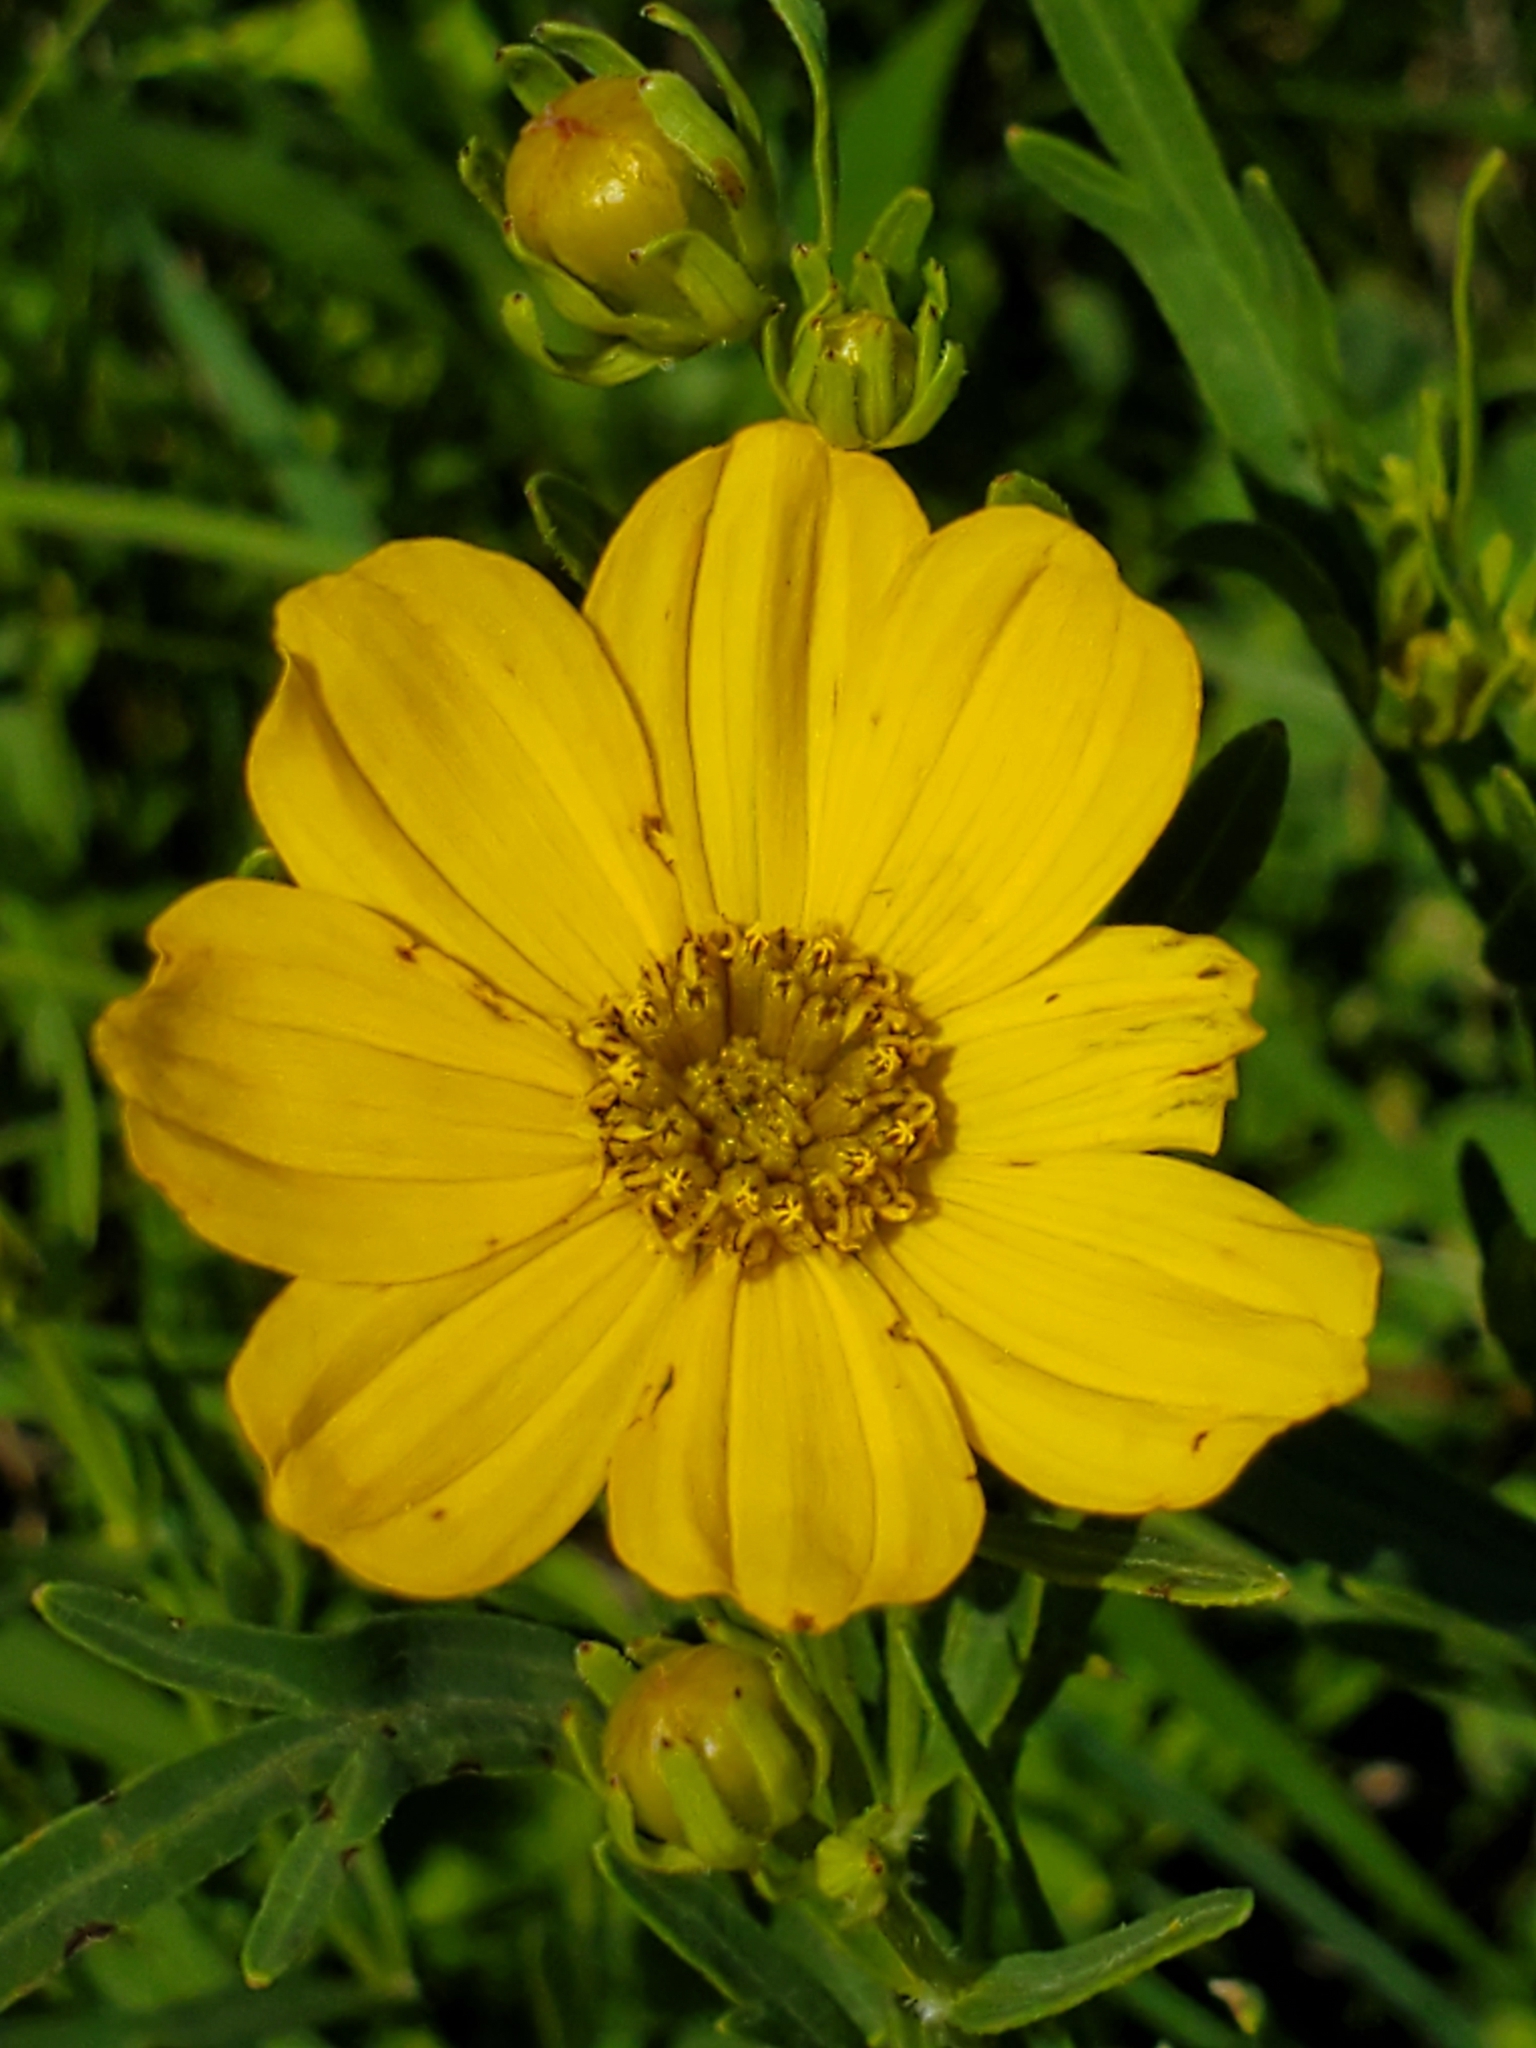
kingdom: Plantae
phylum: Tracheophyta
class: Magnoliopsida
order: Asterales
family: Asteraceae
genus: Coreopsis
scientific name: Coreopsis palmata
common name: Prairie coreopsis
